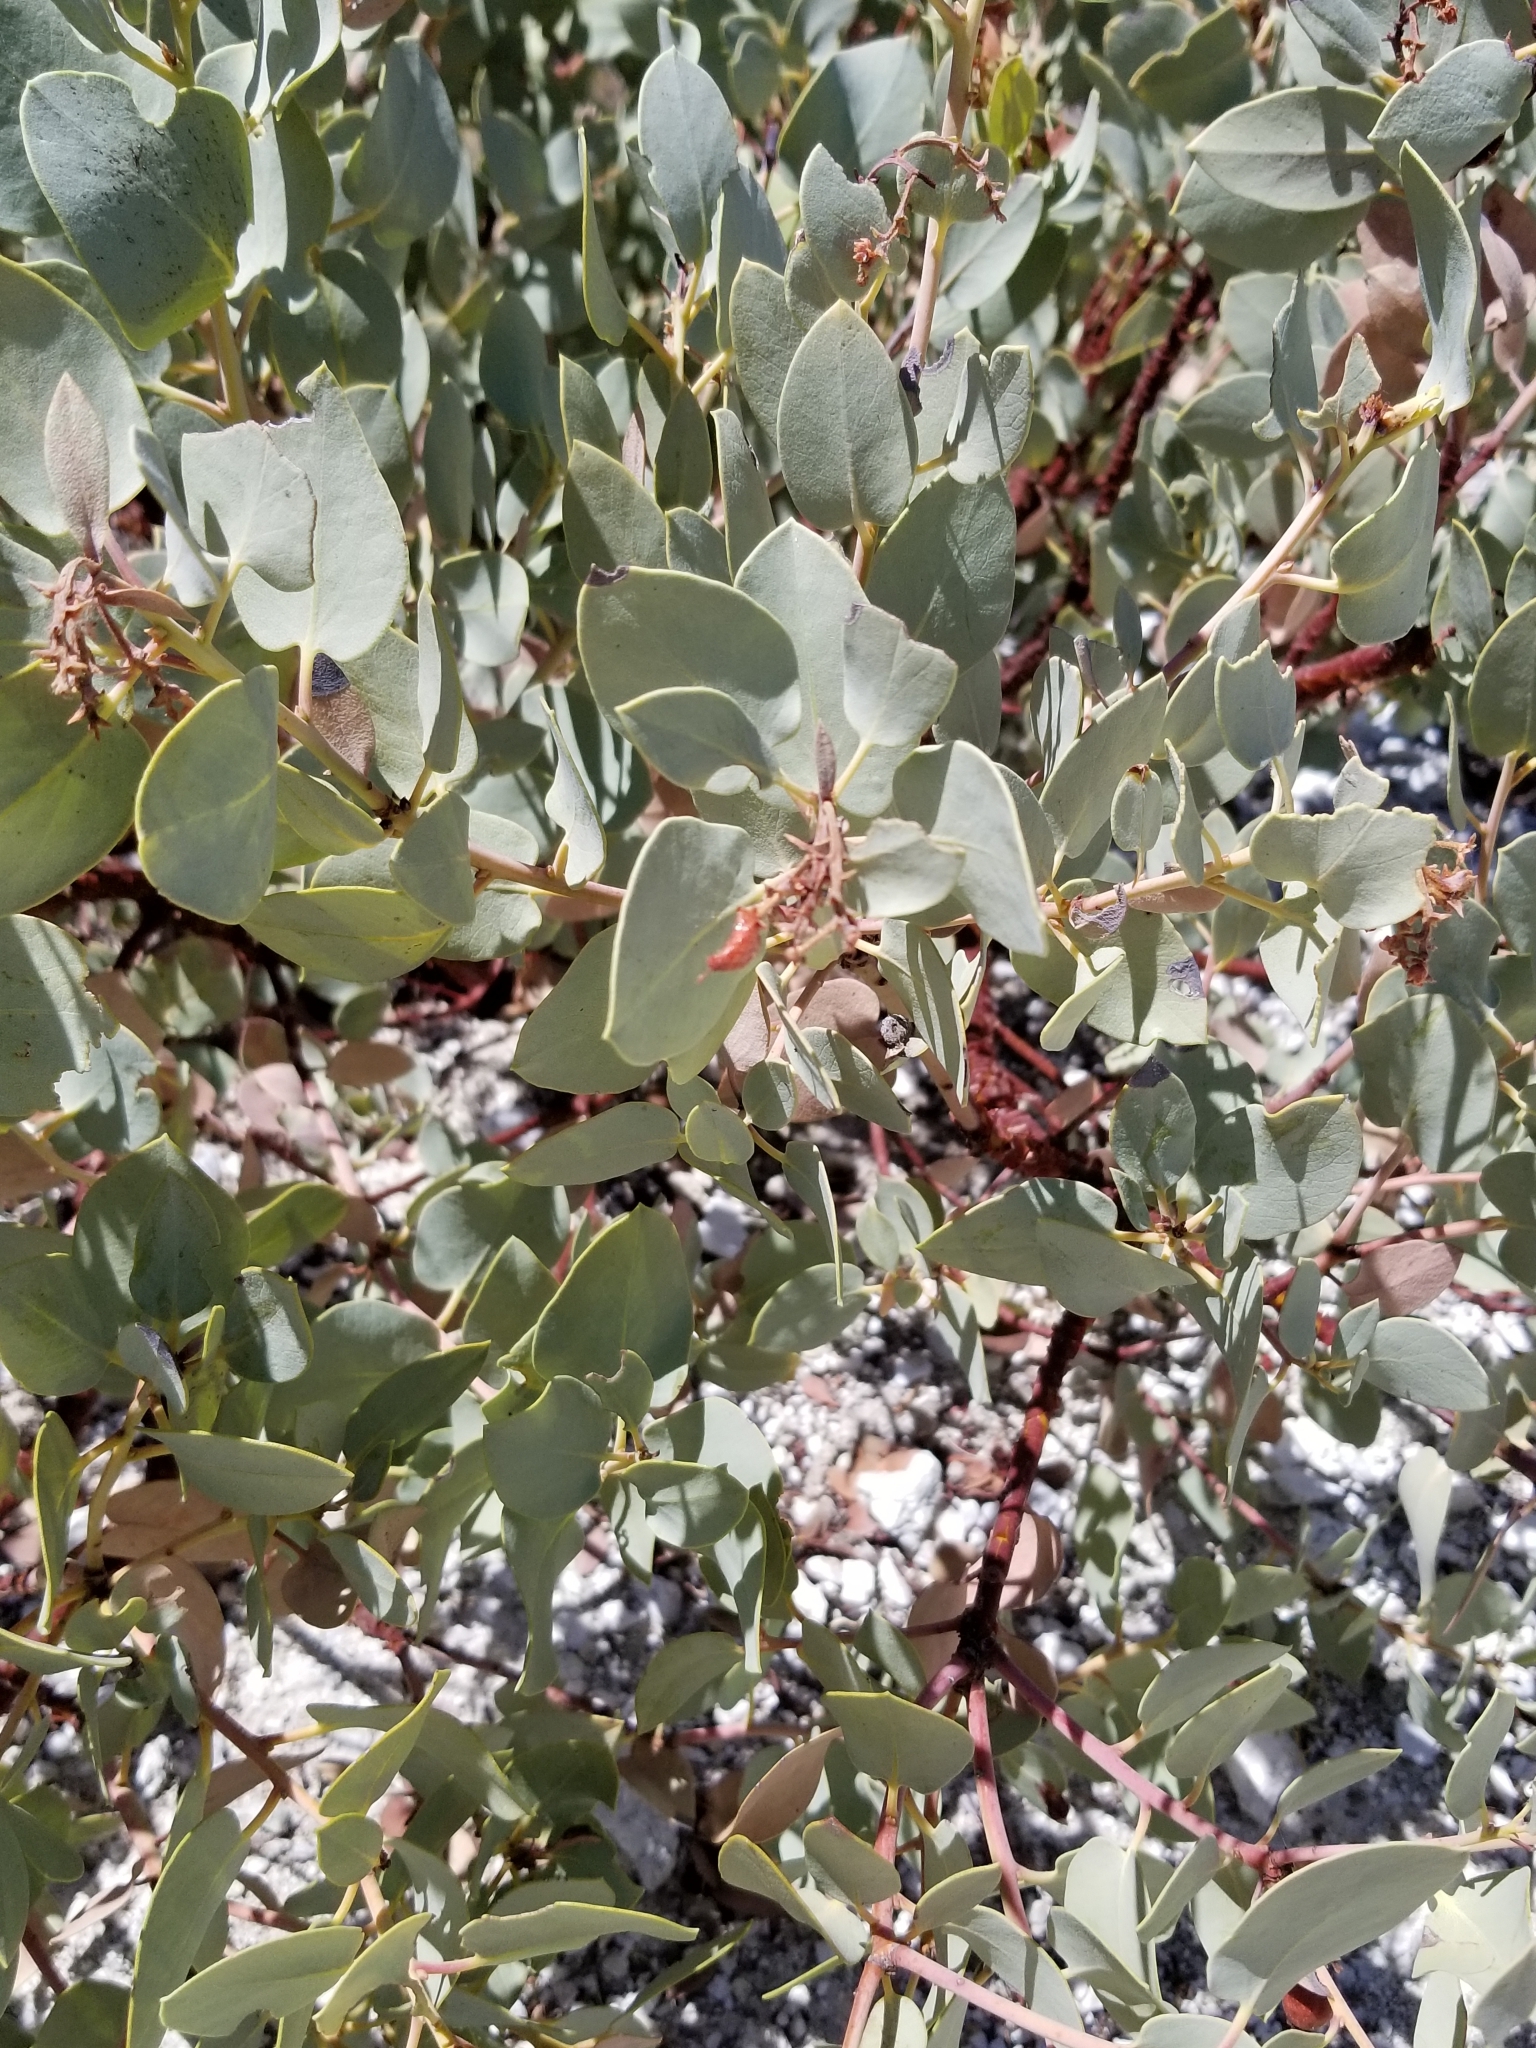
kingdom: Plantae
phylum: Tracheophyta
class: Magnoliopsida
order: Ericales
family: Ericaceae
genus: Arctostaphylos
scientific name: Arctostaphylos glauca
